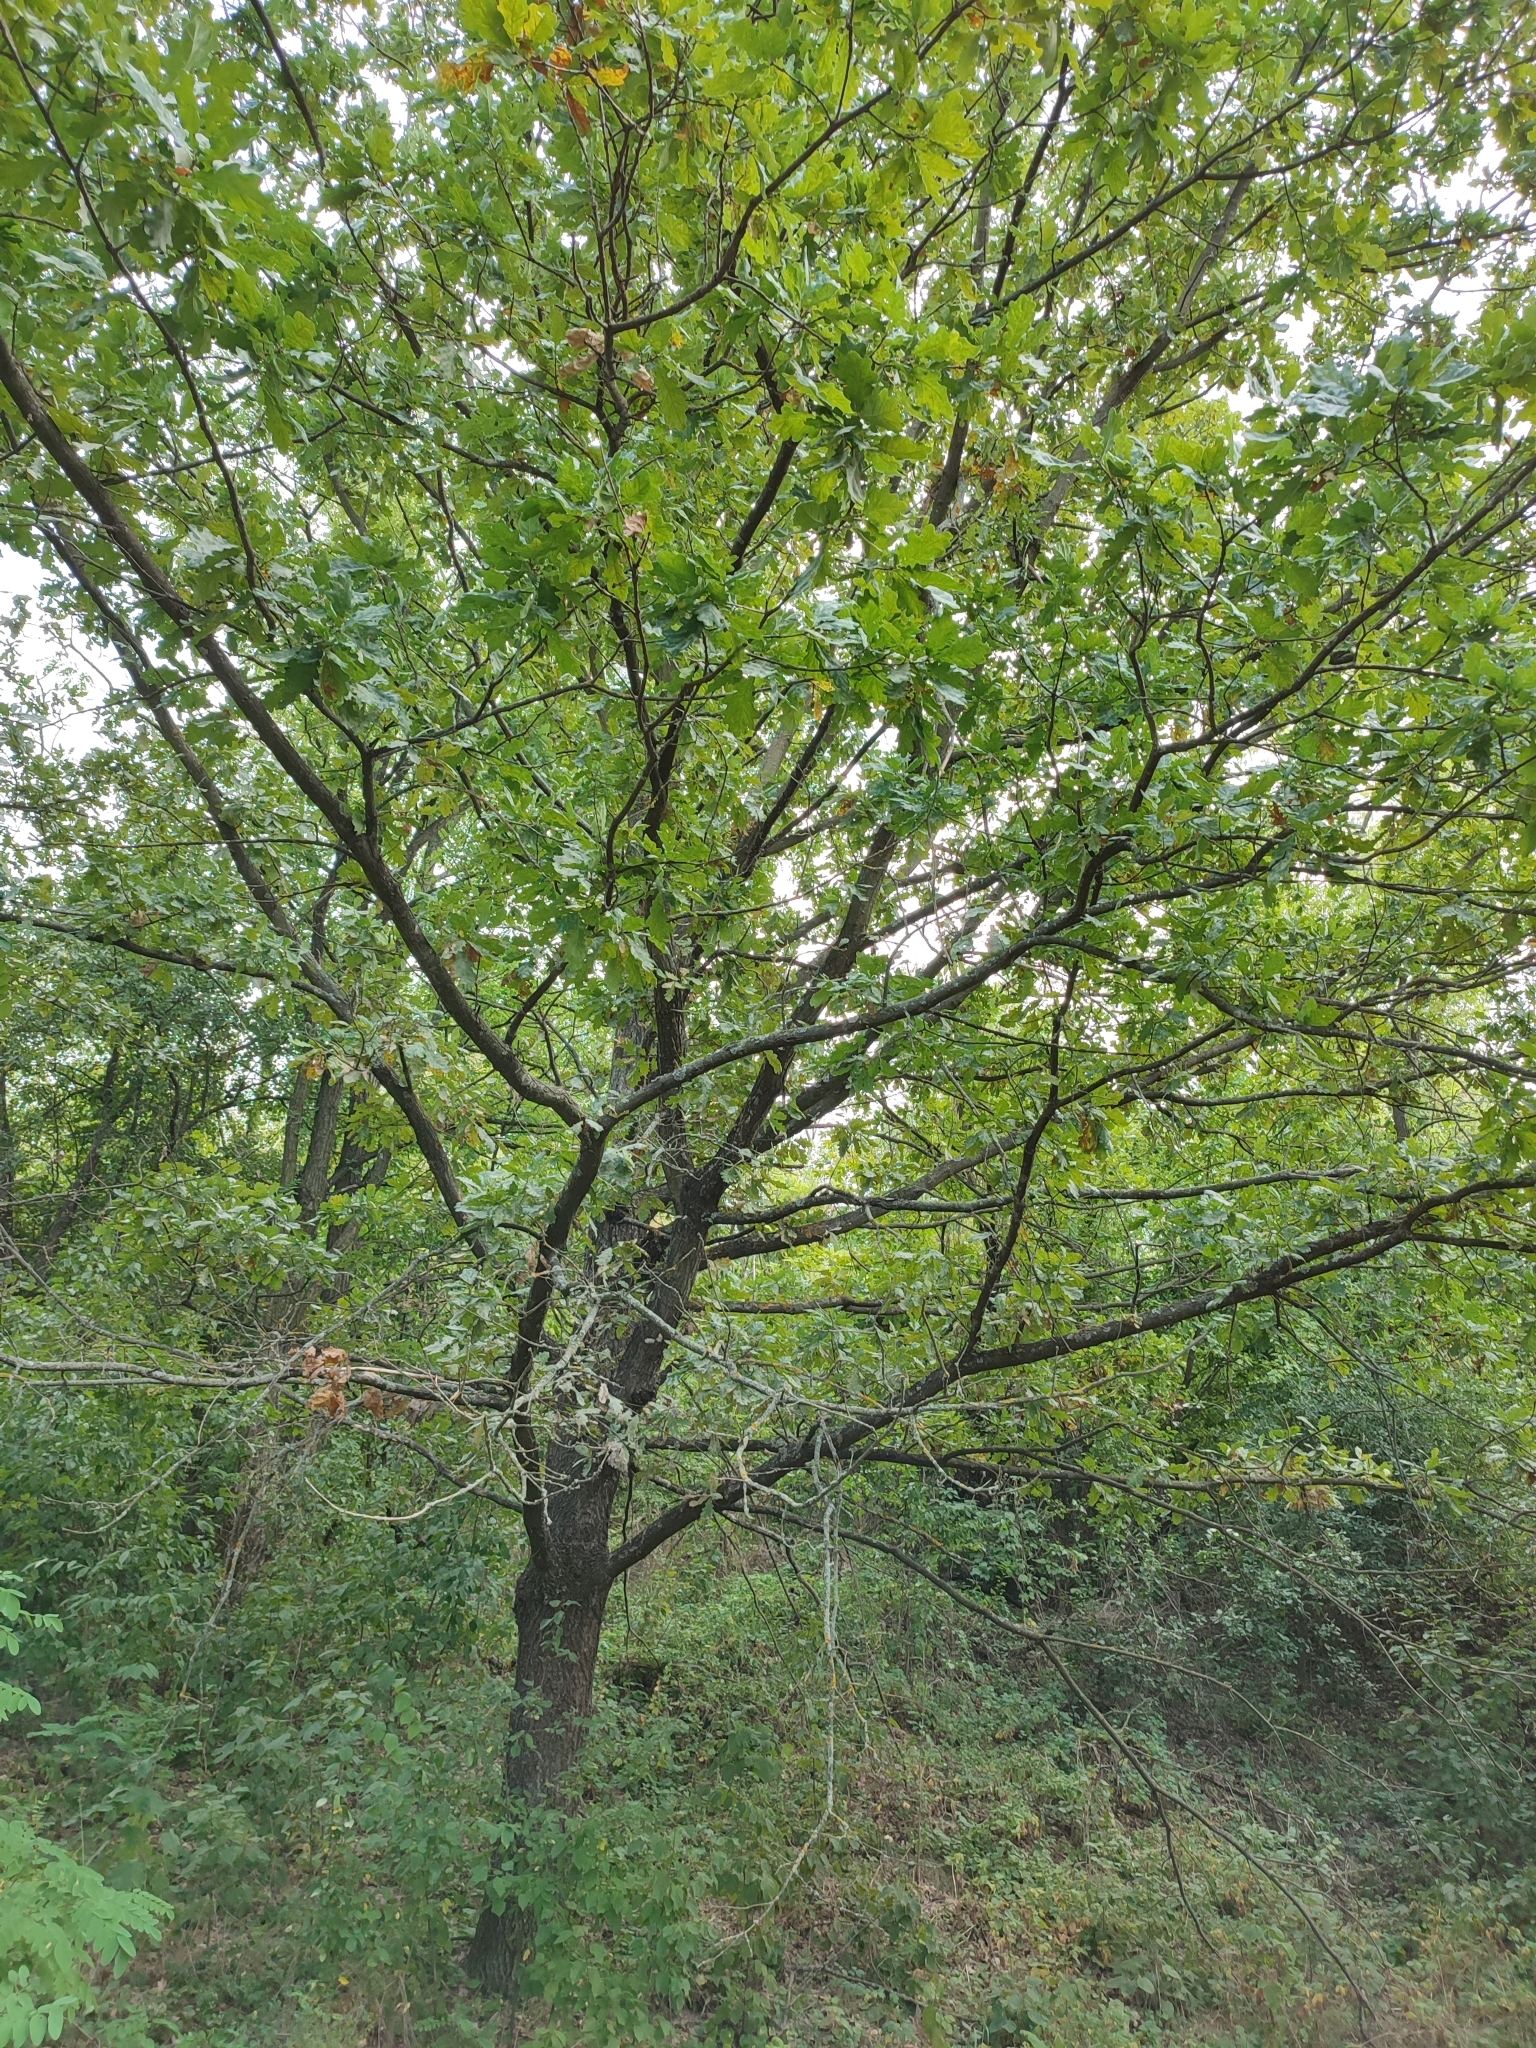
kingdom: Plantae
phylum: Tracheophyta
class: Magnoliopsida
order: Fagales
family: Fagaceae
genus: Quercus
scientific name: Quercus robur
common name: Pedunculate oak
